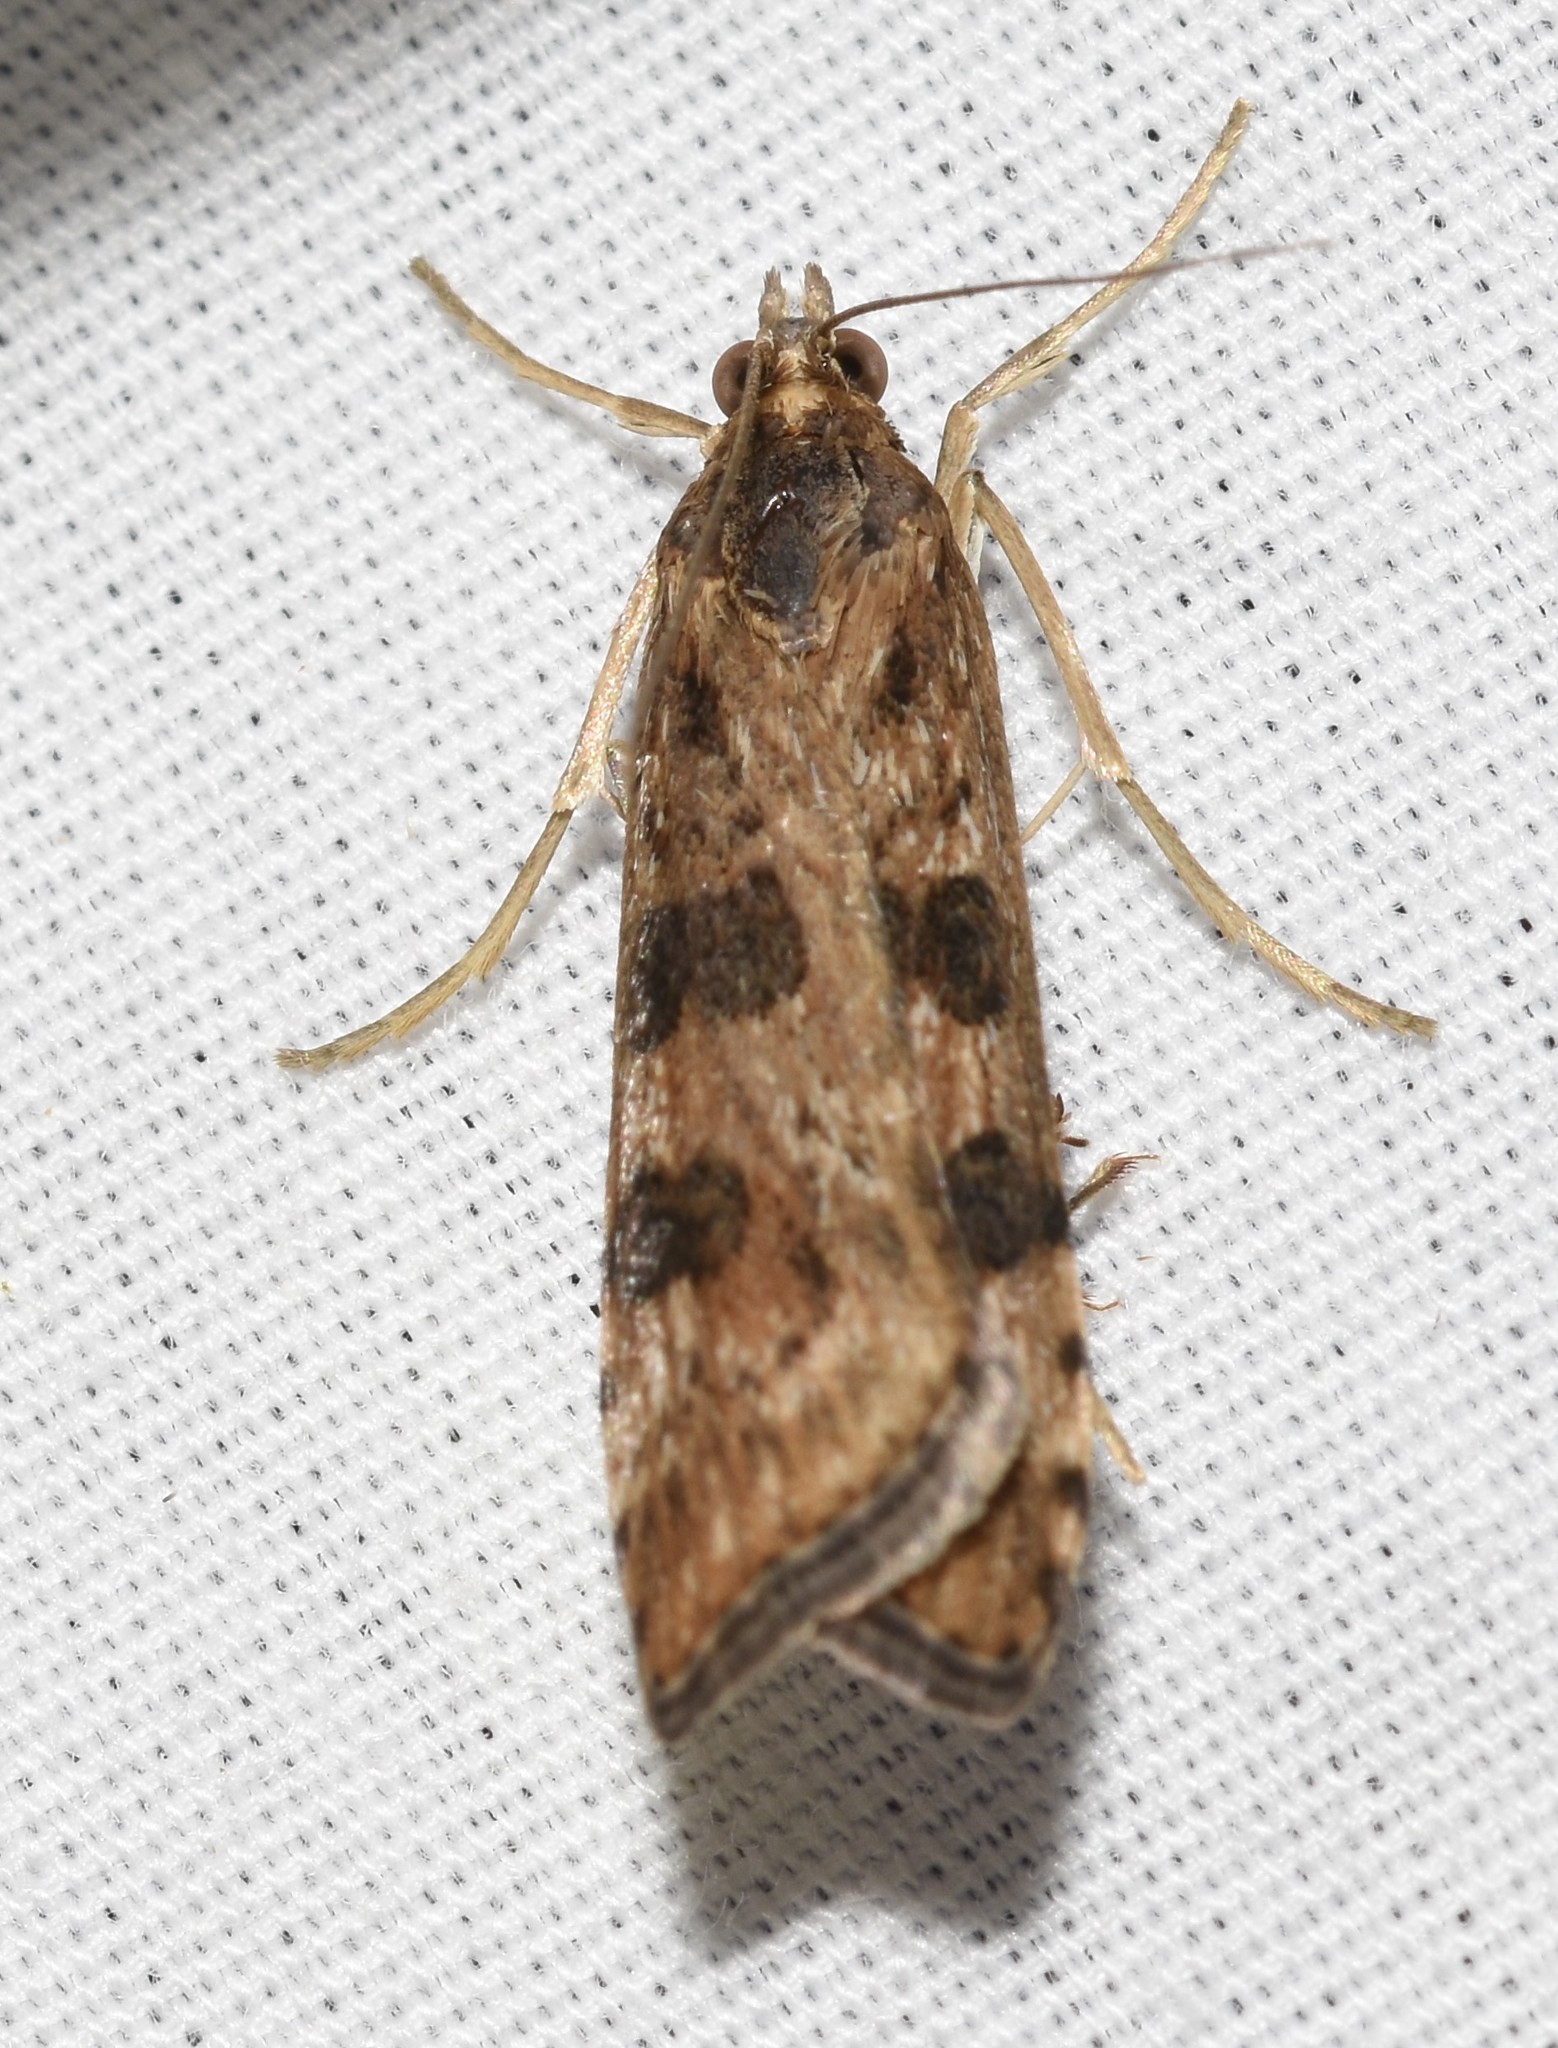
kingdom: Animalia
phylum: Arthropoda
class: Insecta
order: Lepidoptera
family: Crambidae
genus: Nomophila
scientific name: Nomophila nearctica
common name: American rush veneer
